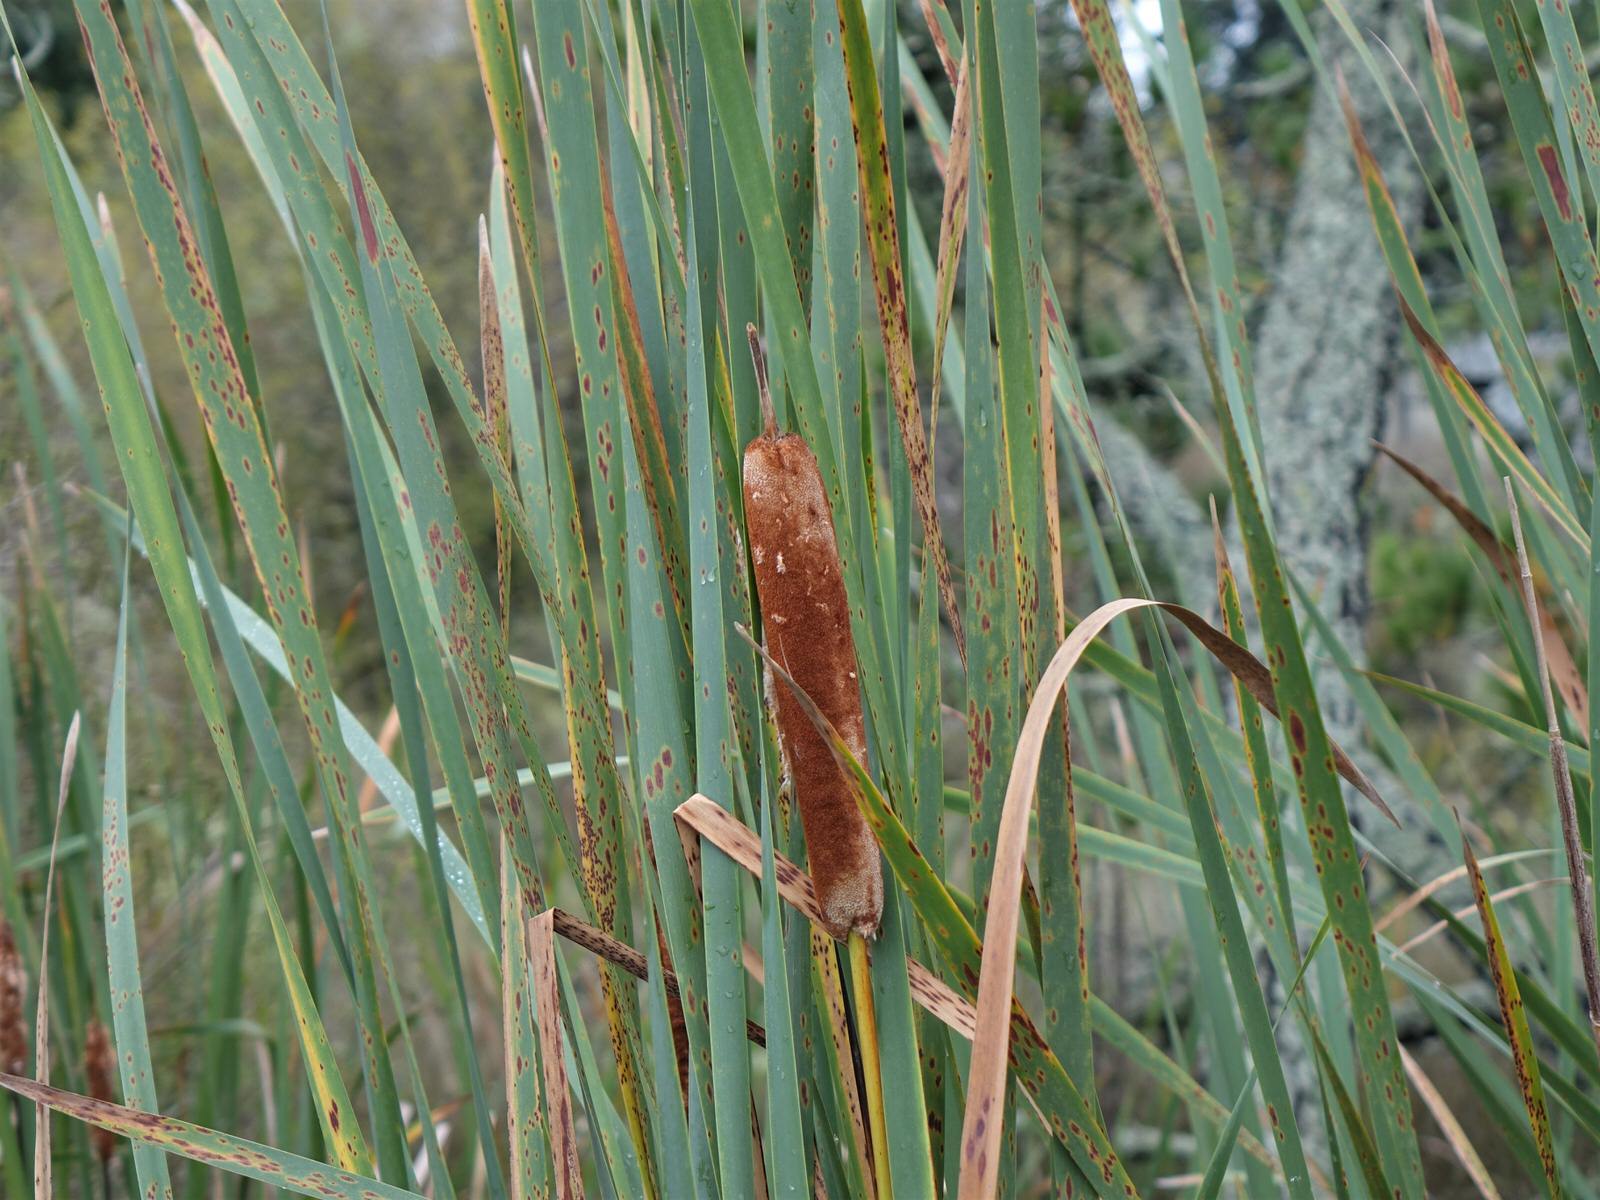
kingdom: Plantae
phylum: Tracheophyta
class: Liliopsida
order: Poales
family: Typhaceae
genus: Typha
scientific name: Typha orientalis
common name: Bullrush
